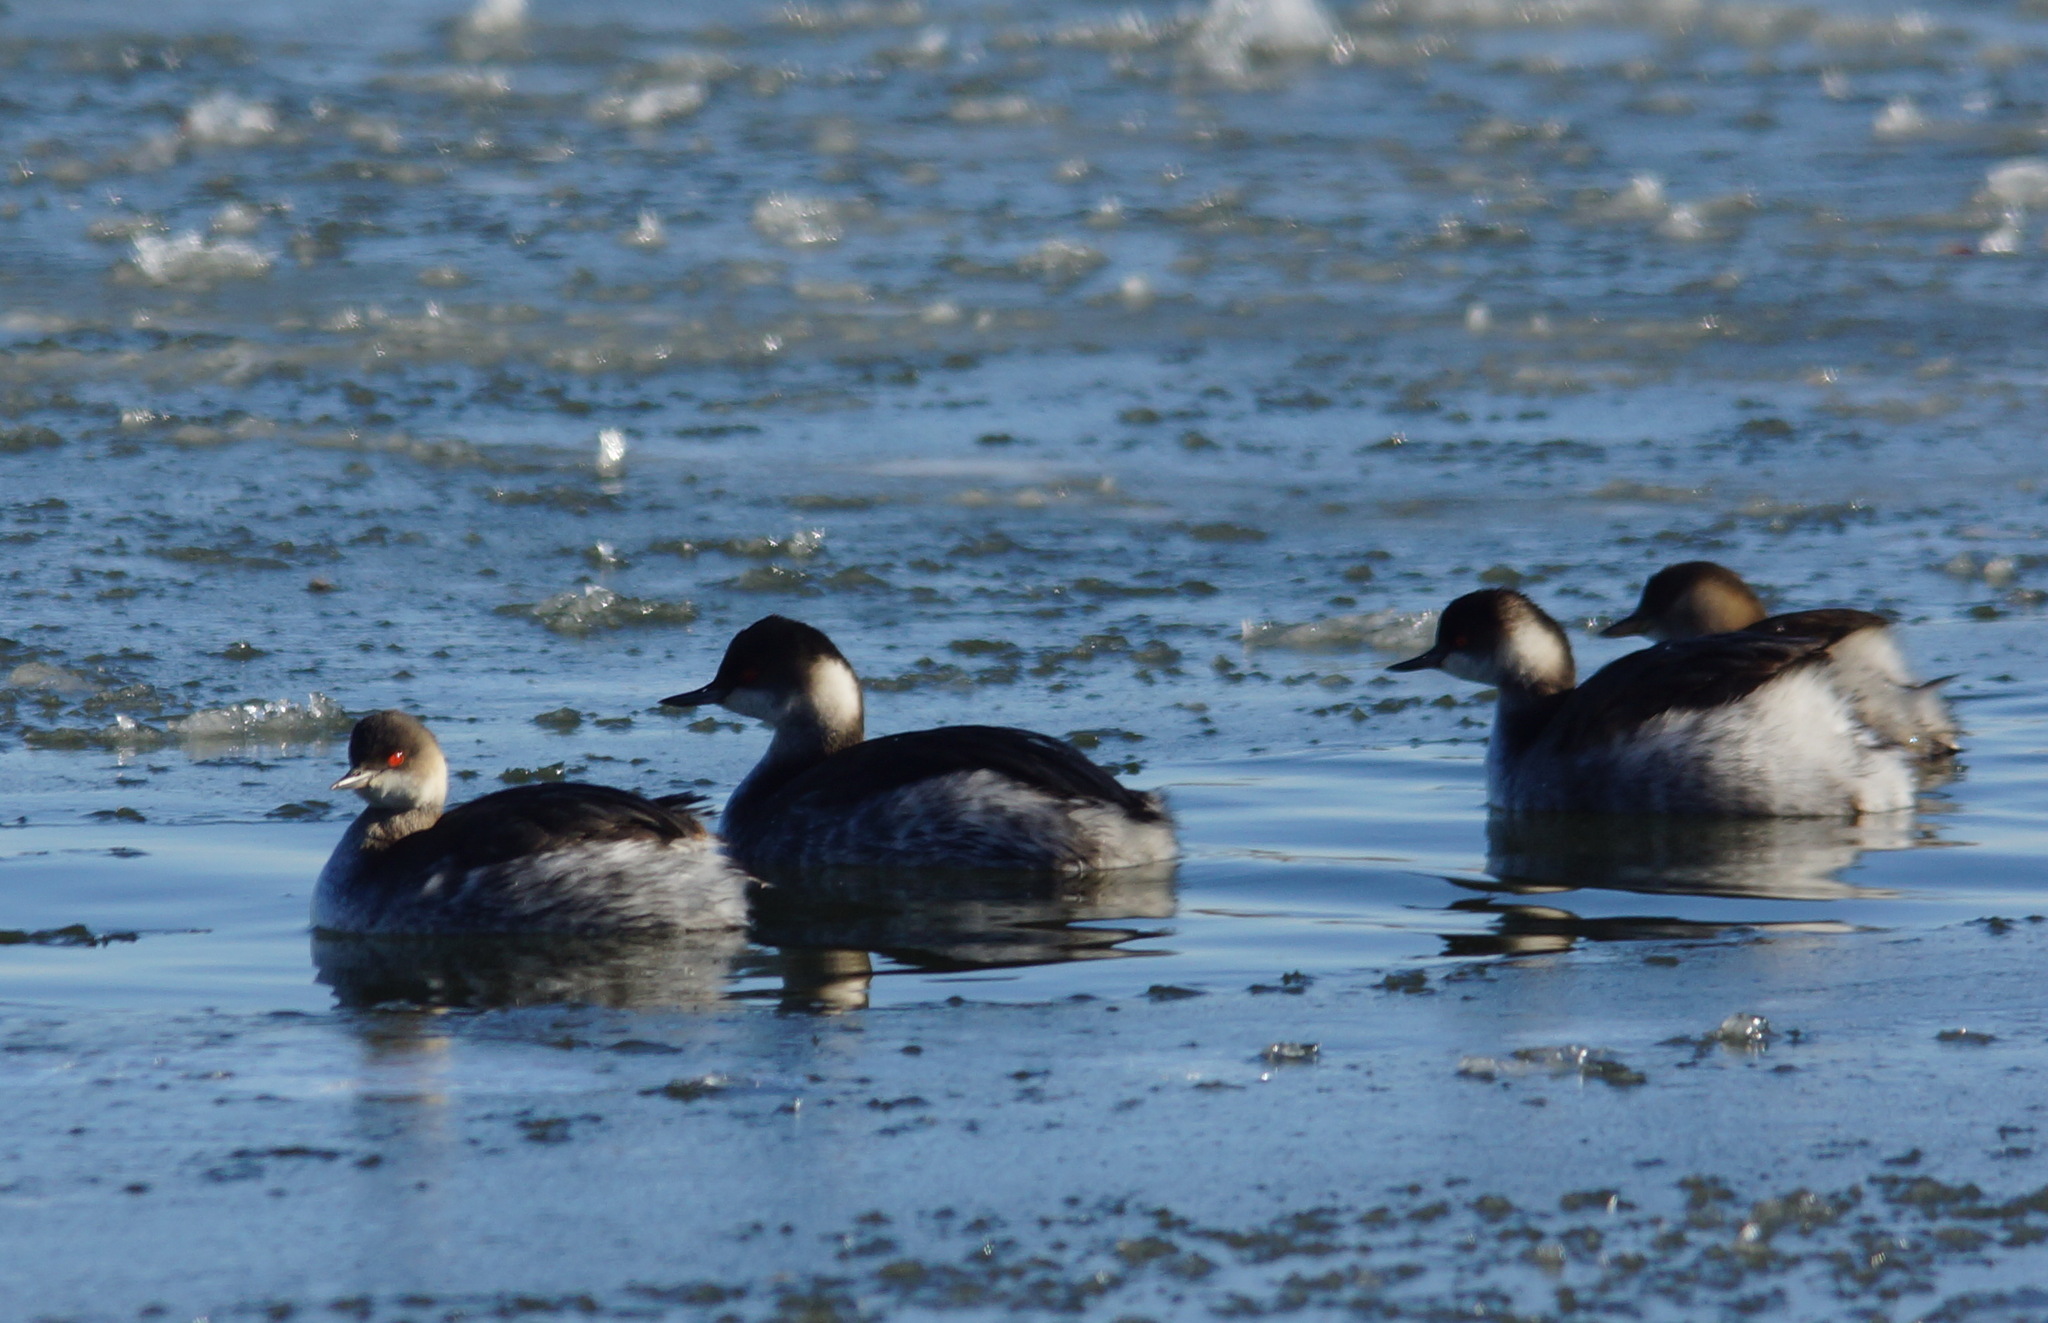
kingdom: Animalia
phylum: Chordata
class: Aves
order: Podicipediformes
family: Podicipedidae
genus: Podiceps
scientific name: Podiceps nigricollis
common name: Black-necked grebe
